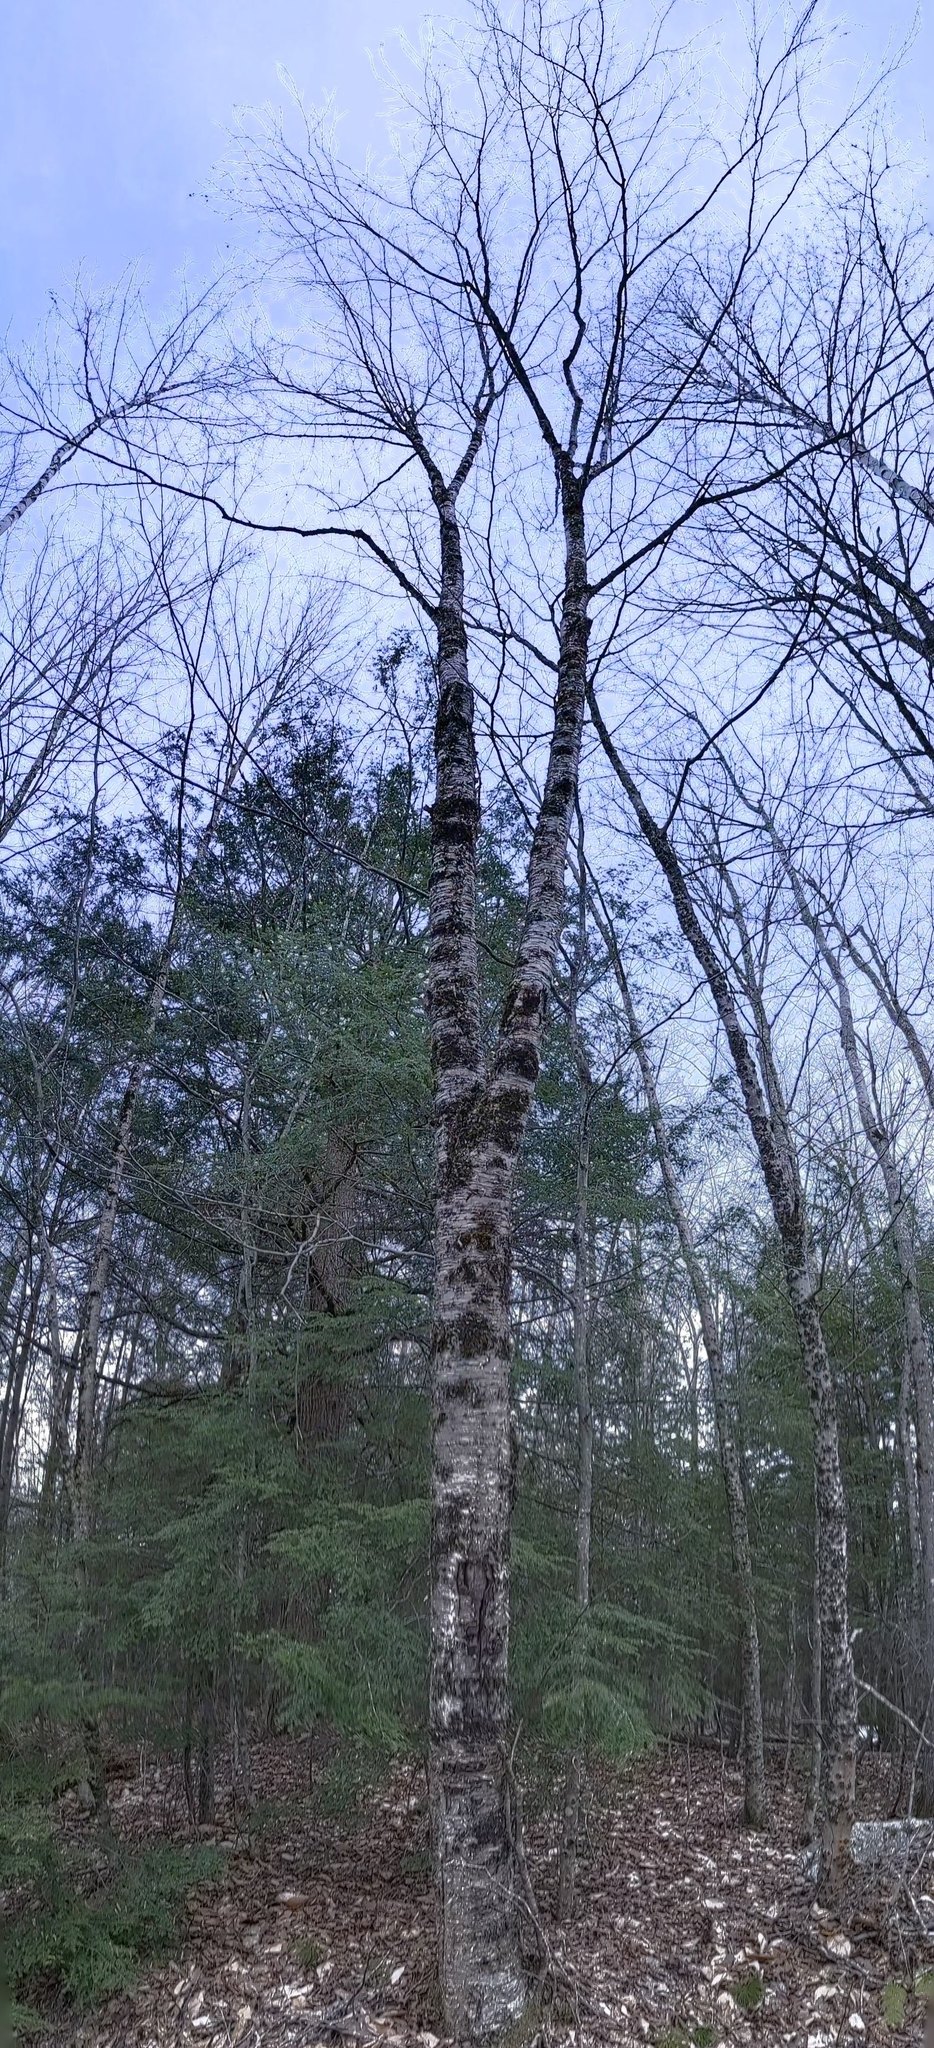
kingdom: Plantae
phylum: Tracheophyta
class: Magnoliopsida
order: Fagales
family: Betulaceae
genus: Betula
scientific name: Betula alleghaniensis
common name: Yellow birch
